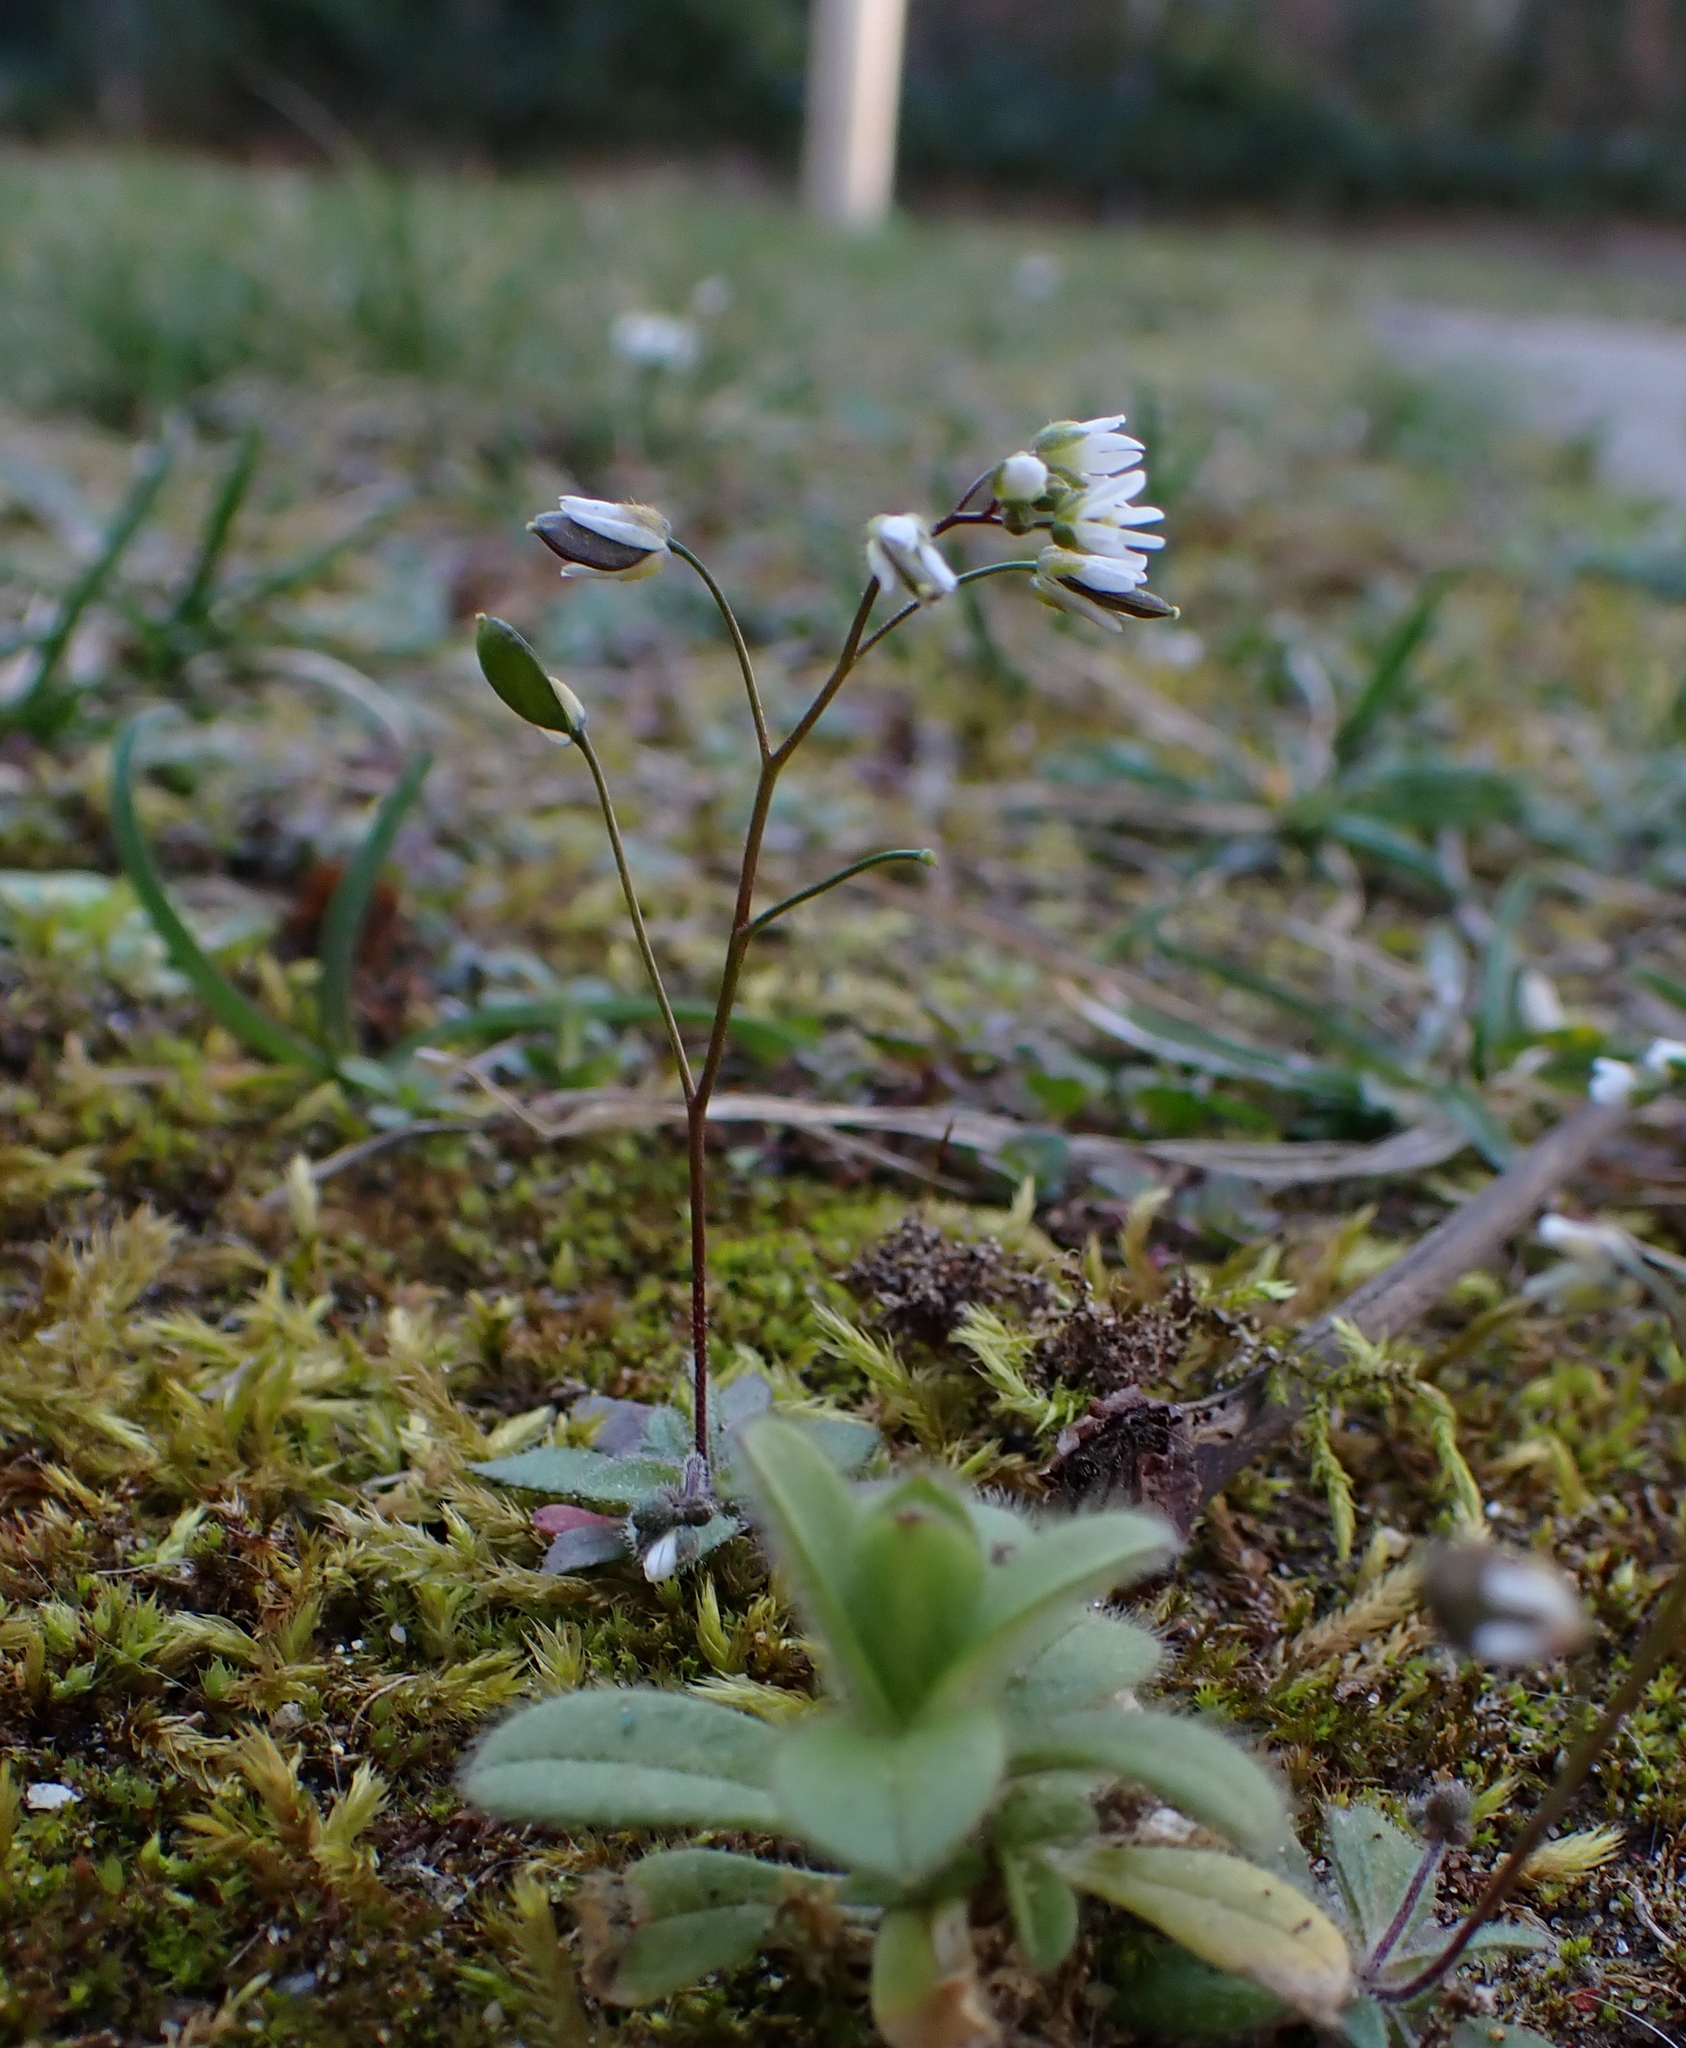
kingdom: Plantae
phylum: Tracheophyta
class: Magnoliopsida
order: Brassicales
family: Brassicaceae
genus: Draba
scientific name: Draba verna
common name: Spring draba
